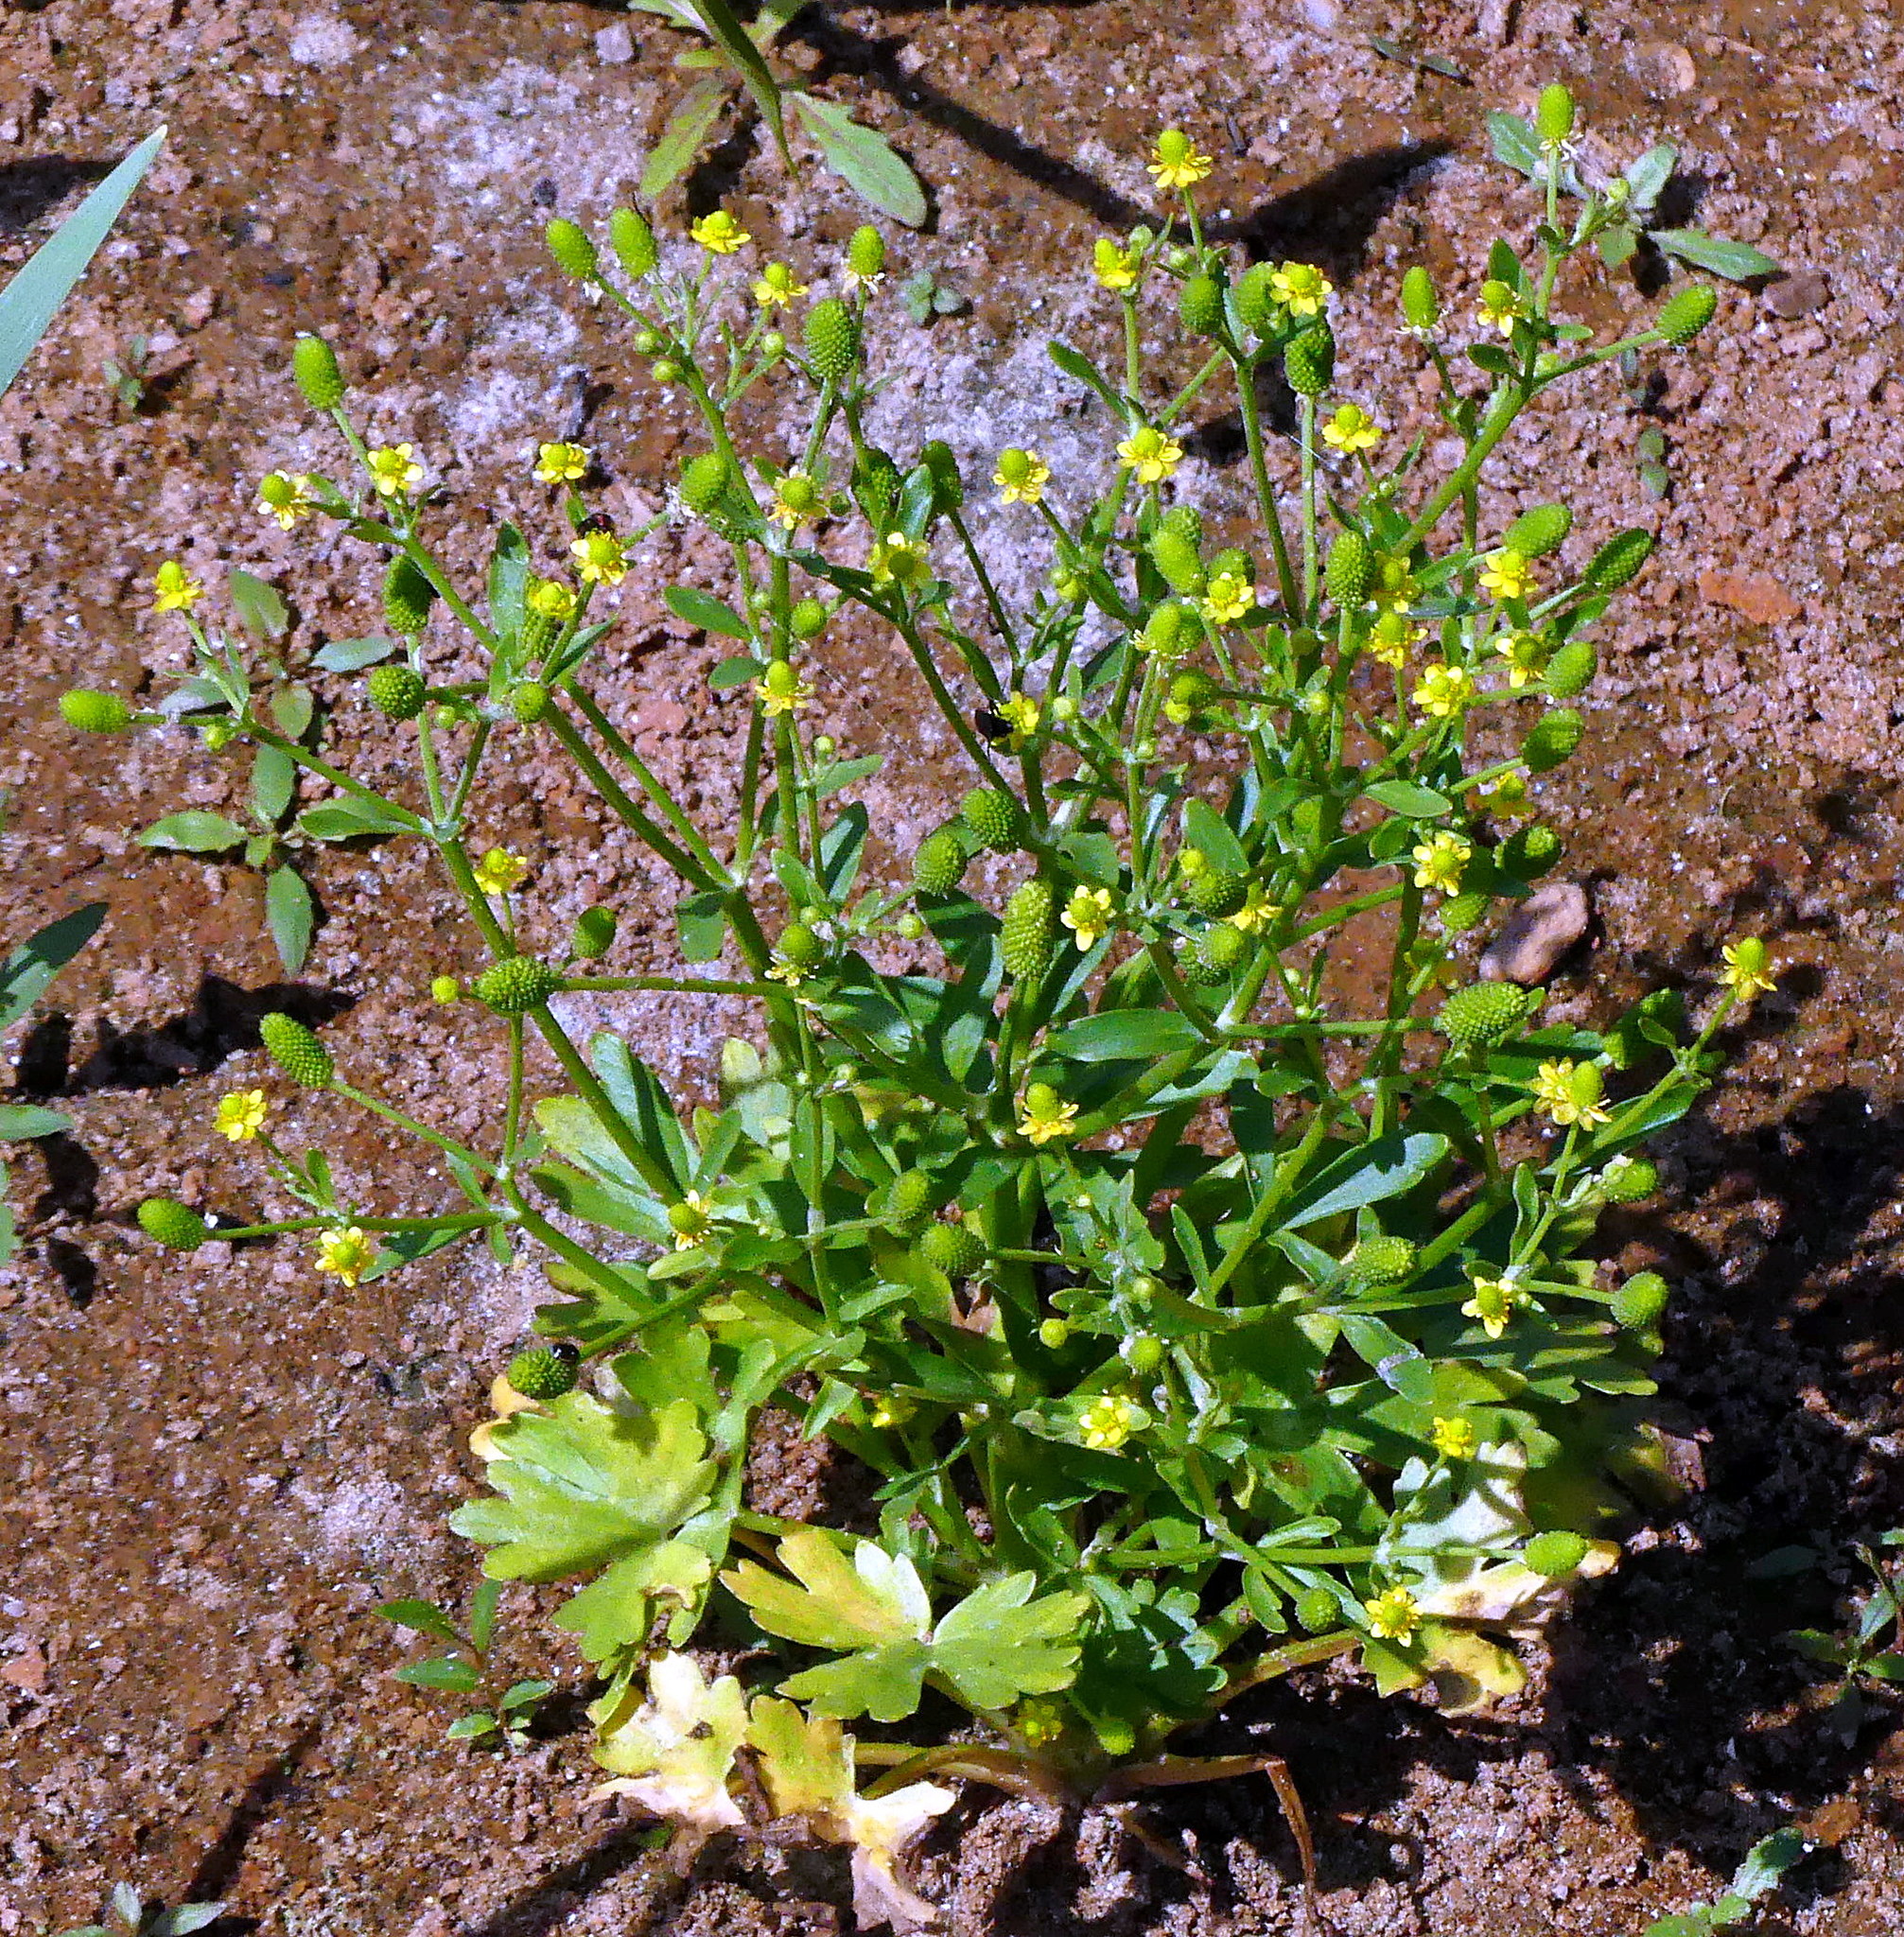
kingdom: Plantae
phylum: Tracheophyta
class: Magnoliopsida
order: Ranunculales
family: Ranunculaceae
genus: Ranunculus
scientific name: Ranunculus sceleratus
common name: Celery-leaved buttercup
